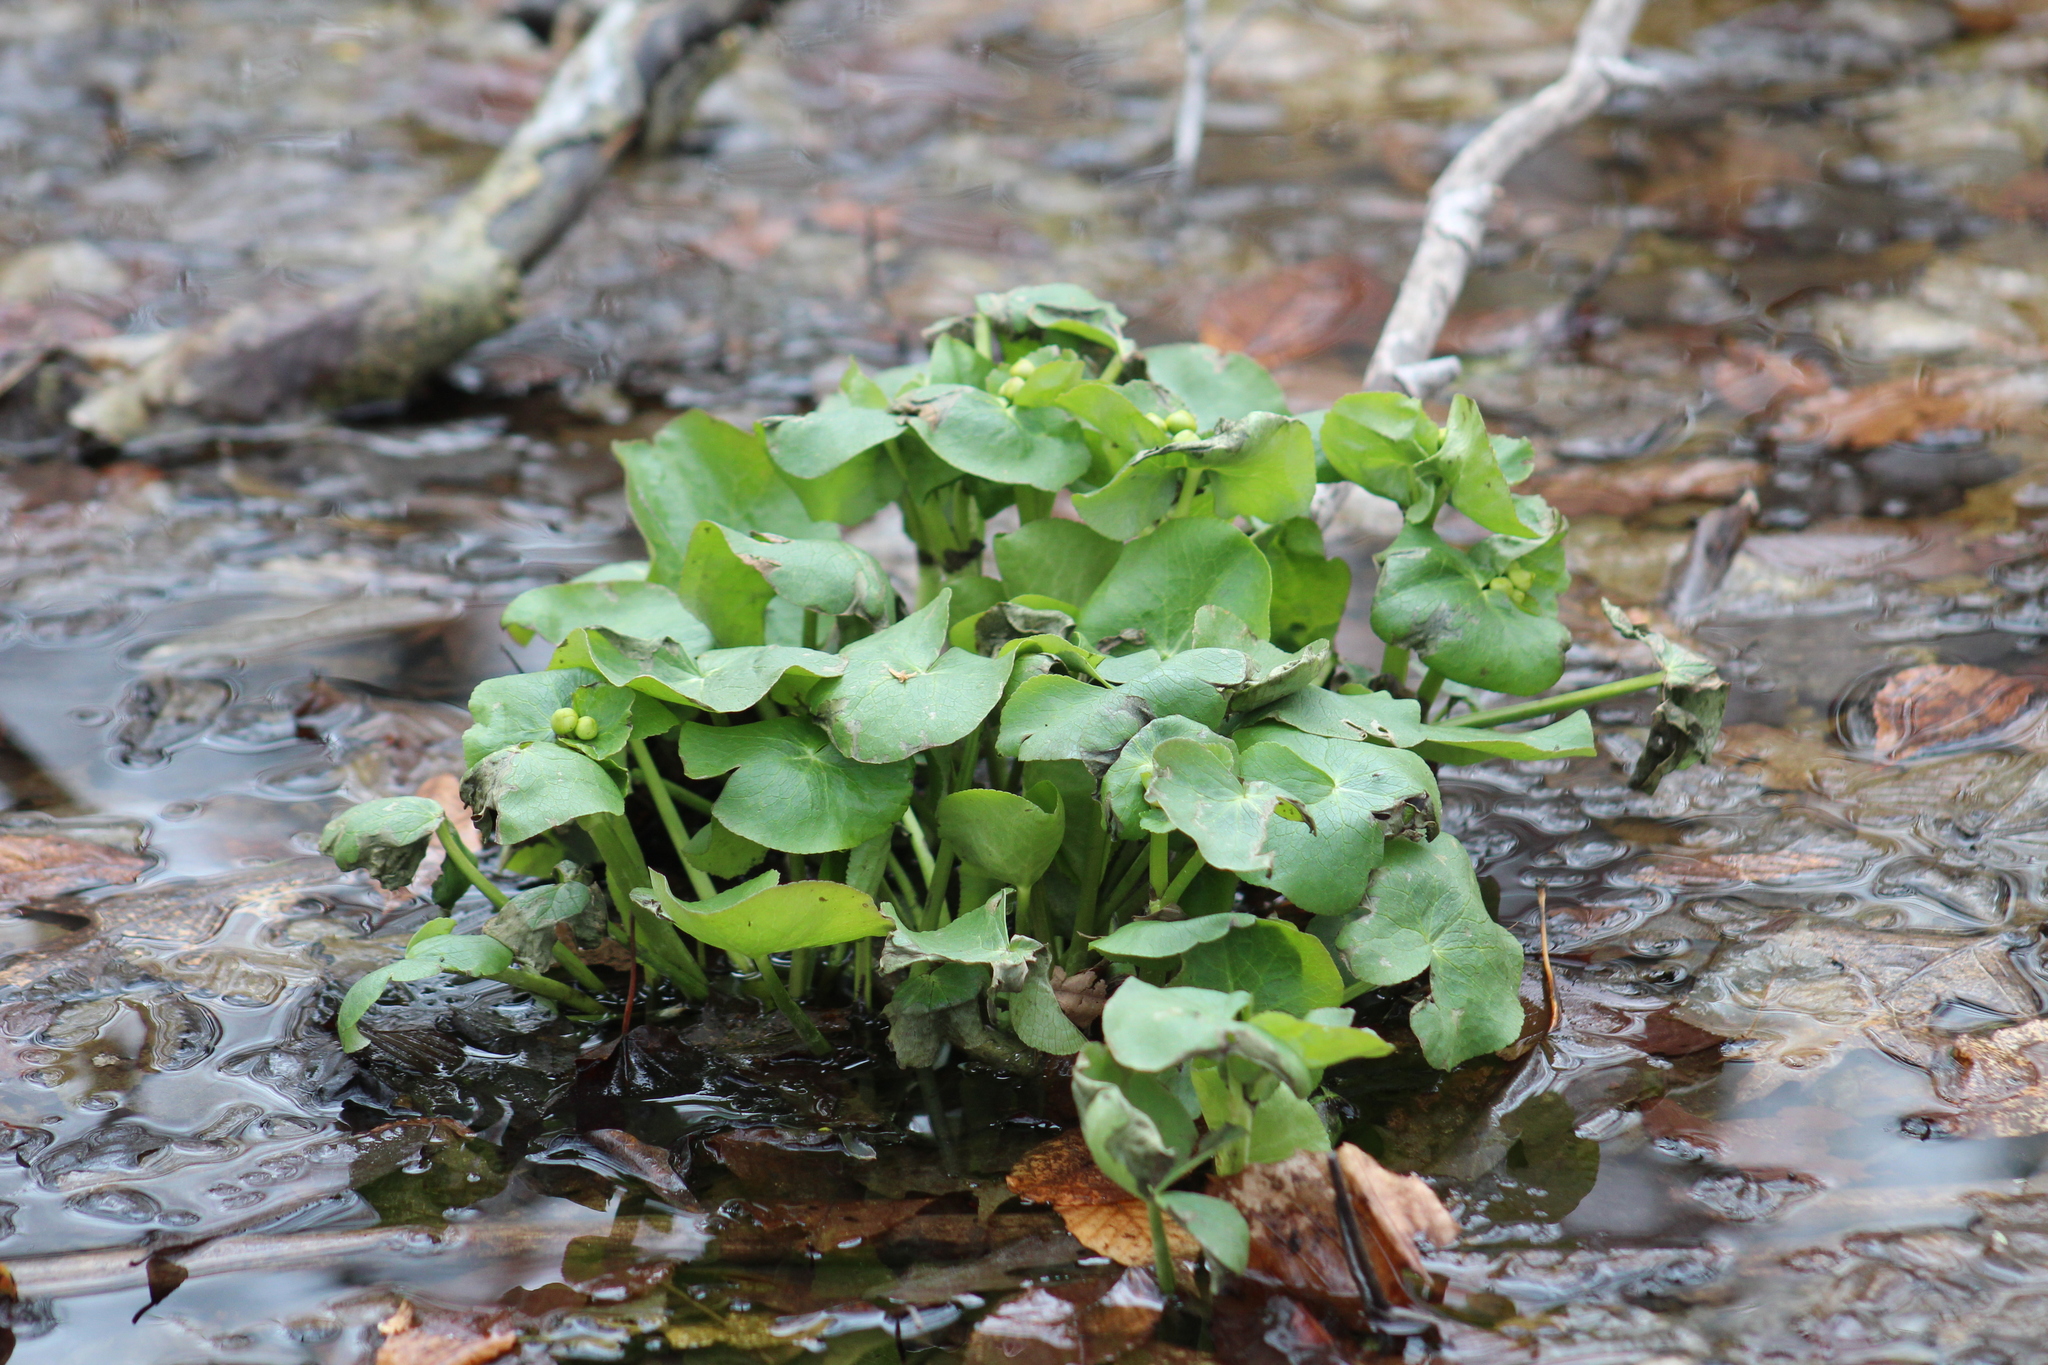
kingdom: Plantae
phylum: Tracheophyta
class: Magnoliopsida
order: Ranunculales
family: Ranunculaceae
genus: Caltha
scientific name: Caltha palustris
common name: Marsh marigold
